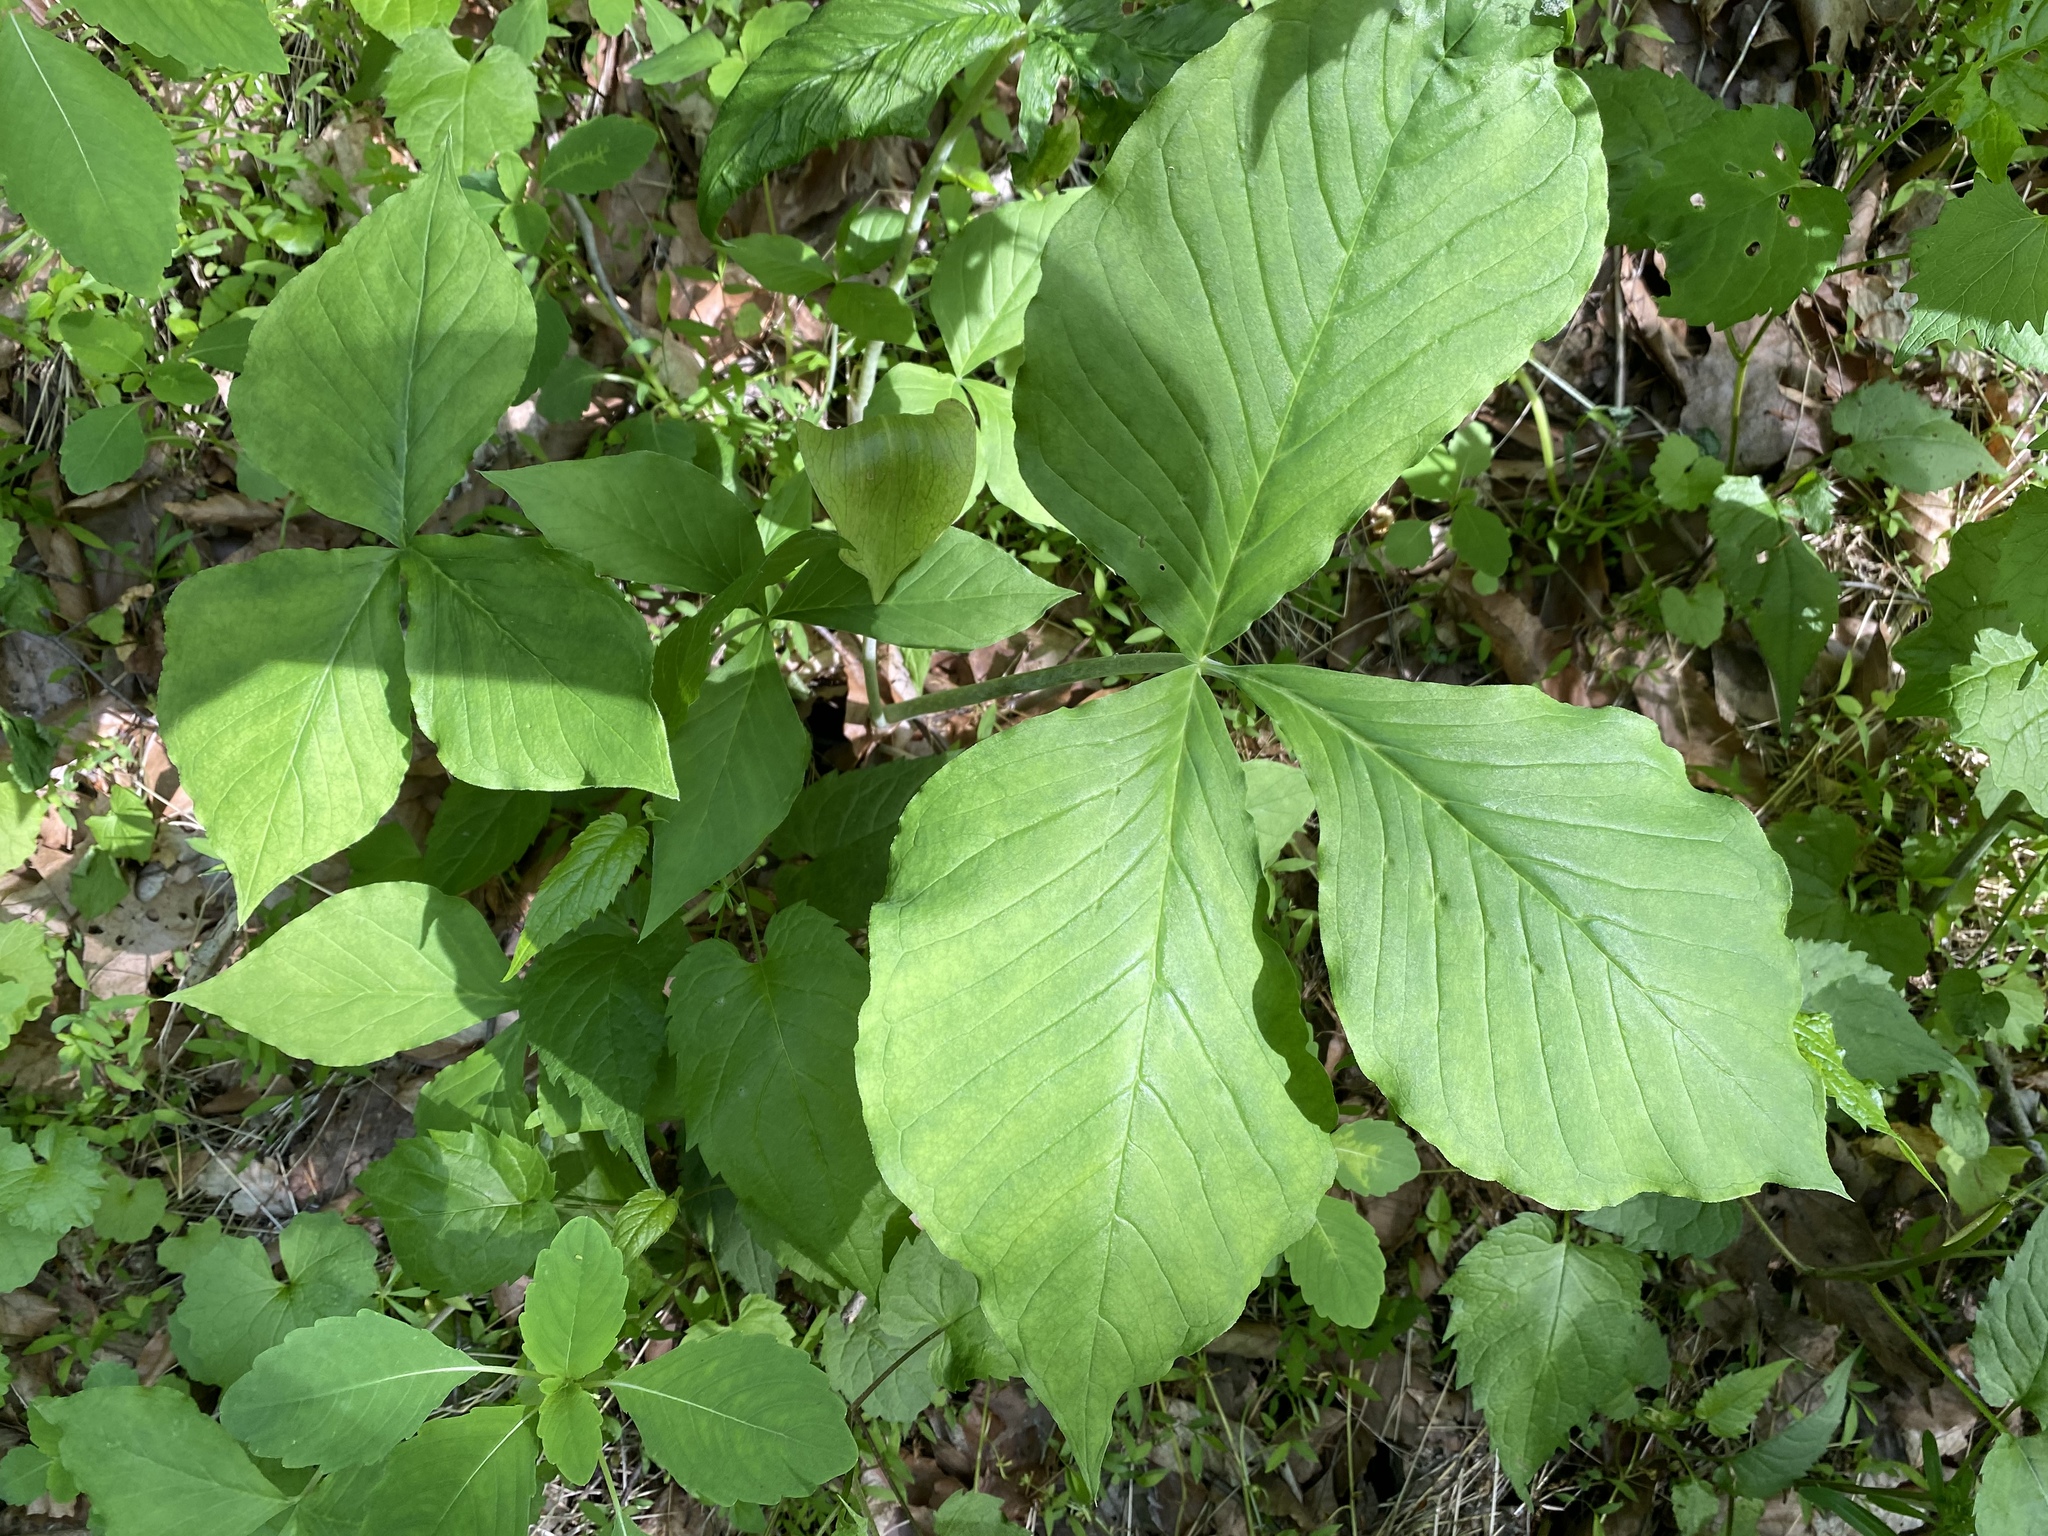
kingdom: Plantae
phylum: Tracheophyta
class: Liliopsida
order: Alismatales
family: Araceae
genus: Arisaema
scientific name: Arisaema triphyllum
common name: Jack-in-the-pulpit
